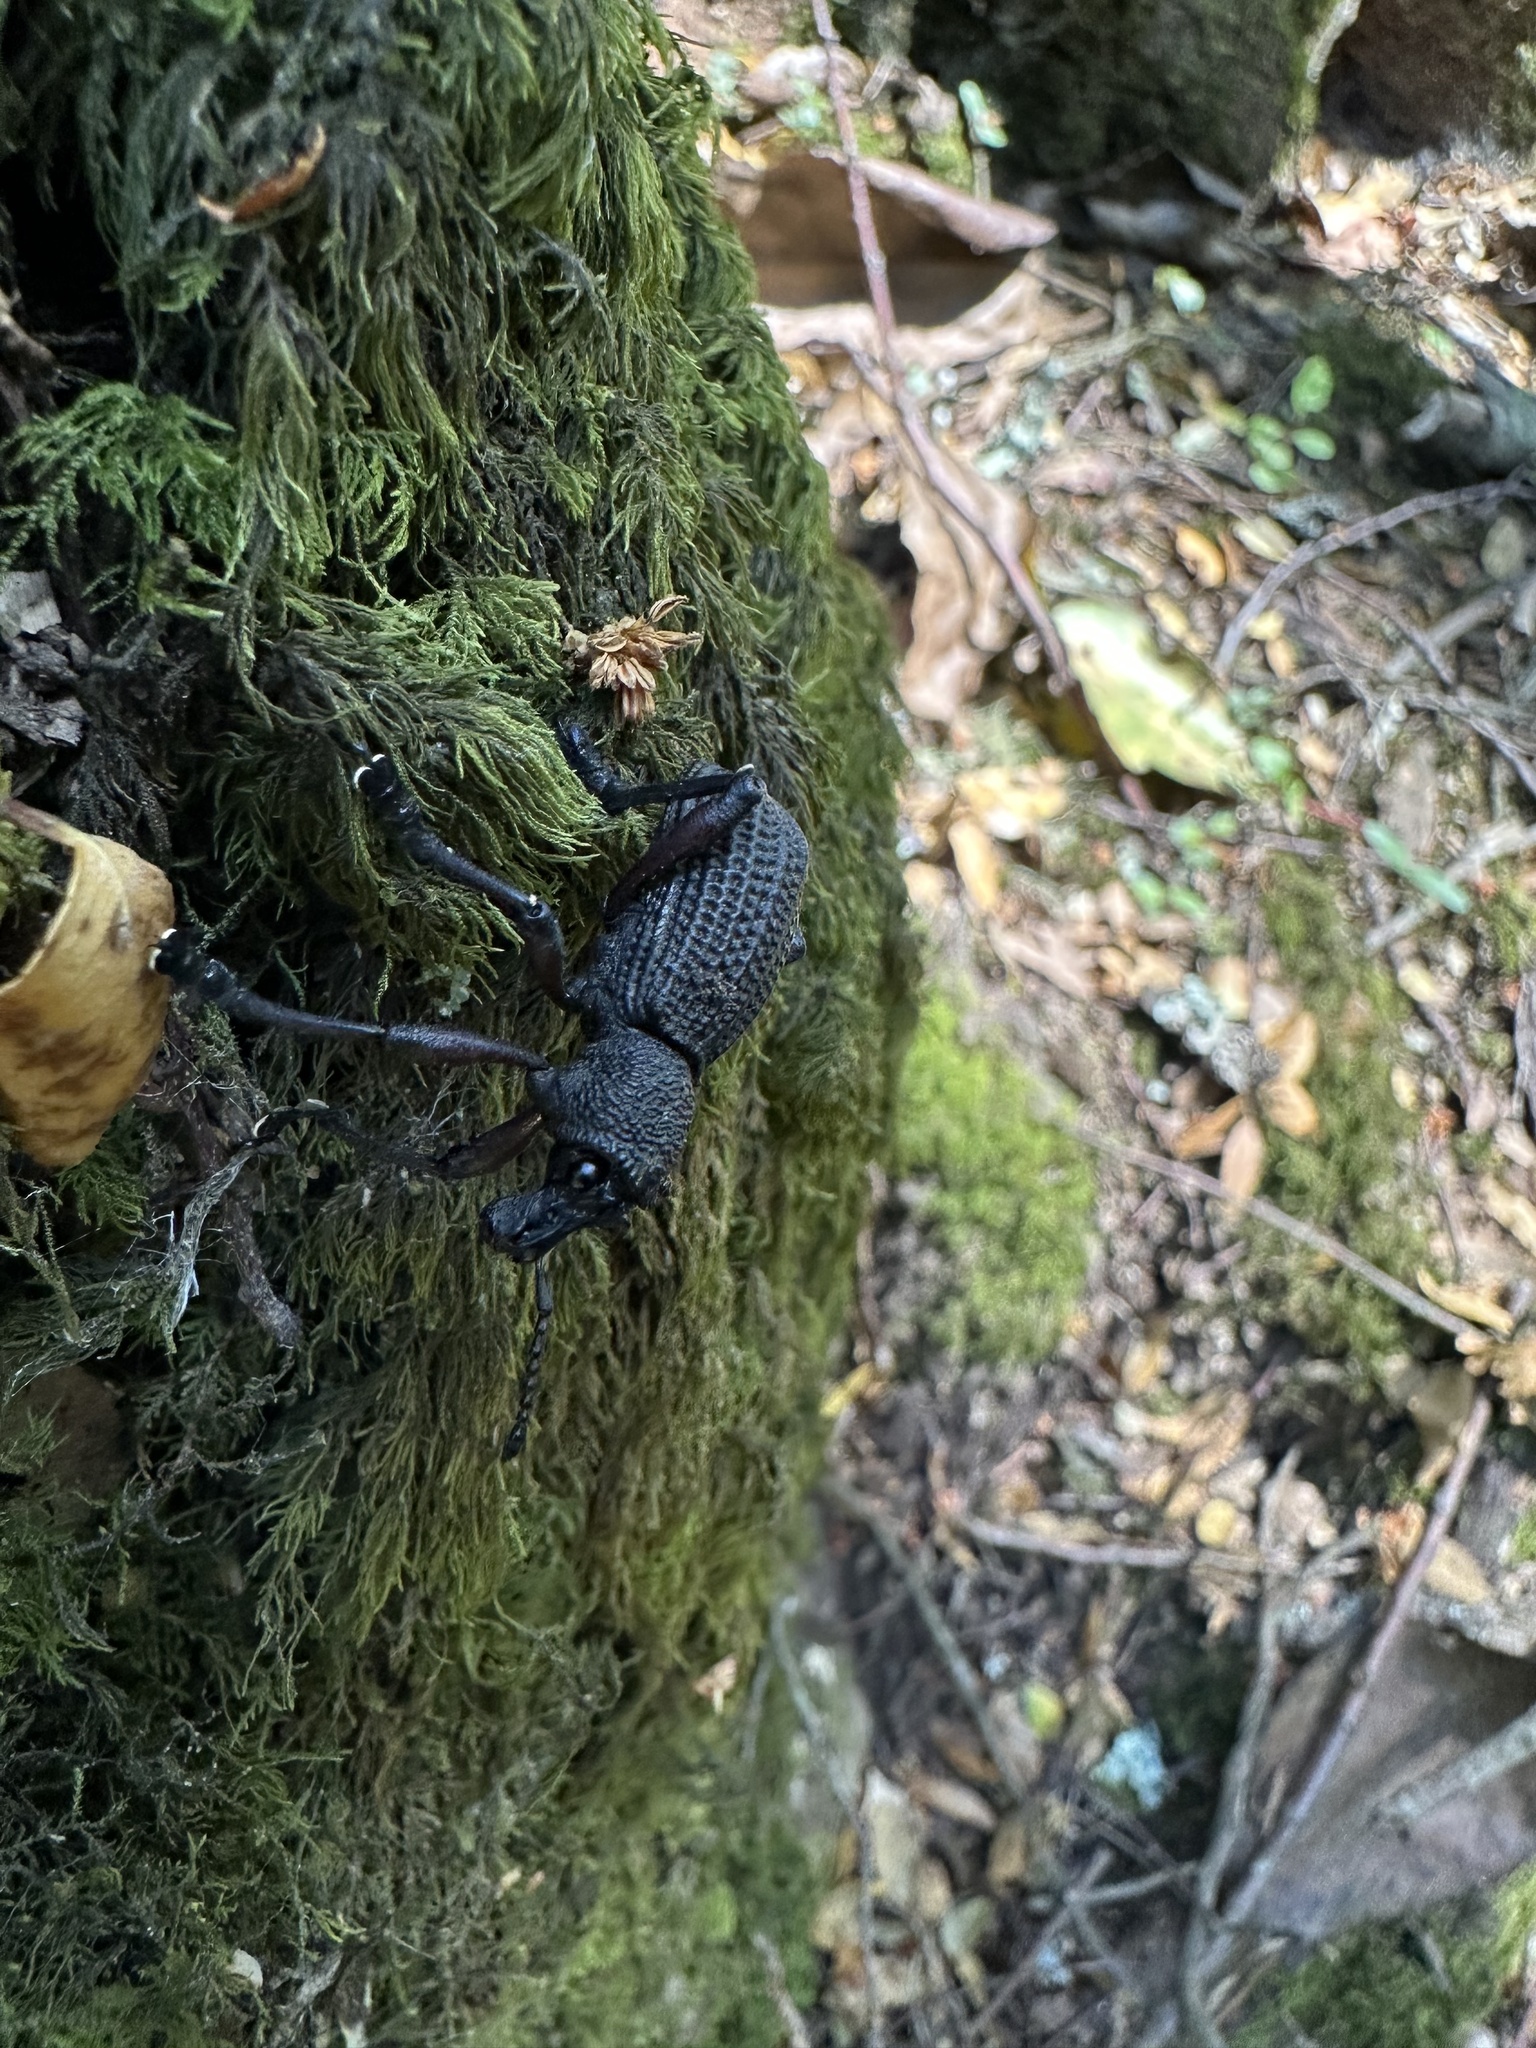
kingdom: Animalia
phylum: Arthropoda
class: Insecta
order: Coleoptera
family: Curculionidae
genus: Aegorhinus
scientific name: Aegorhinus
